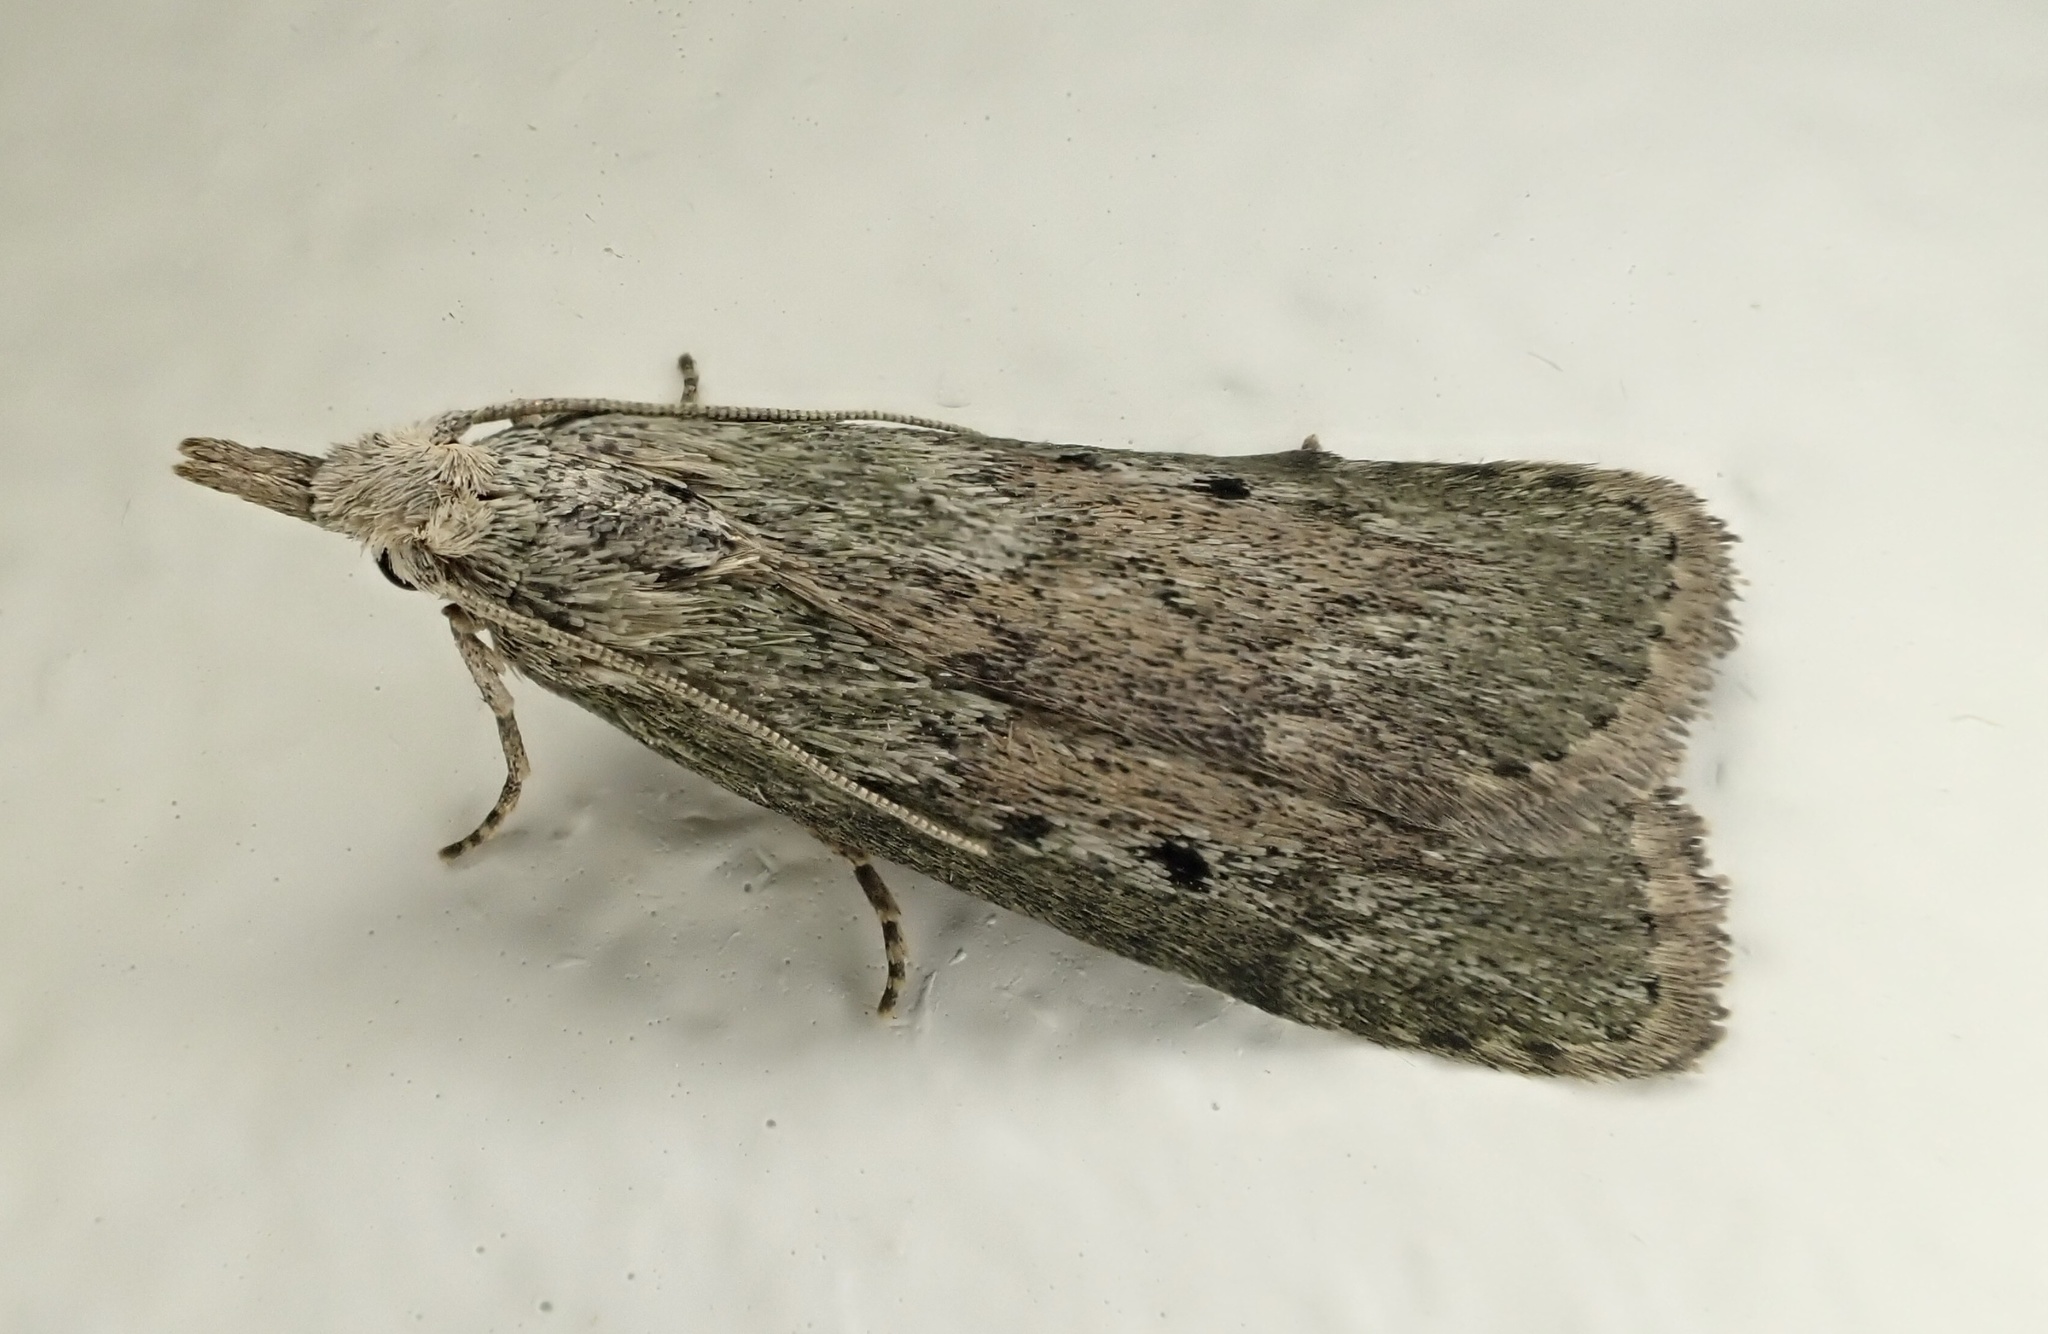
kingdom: Animalia
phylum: Arthropoda
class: Insecta
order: Lepidoptera
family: Pyralidae
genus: Aphomia
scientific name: Aphomia sociella
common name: Bee moth
